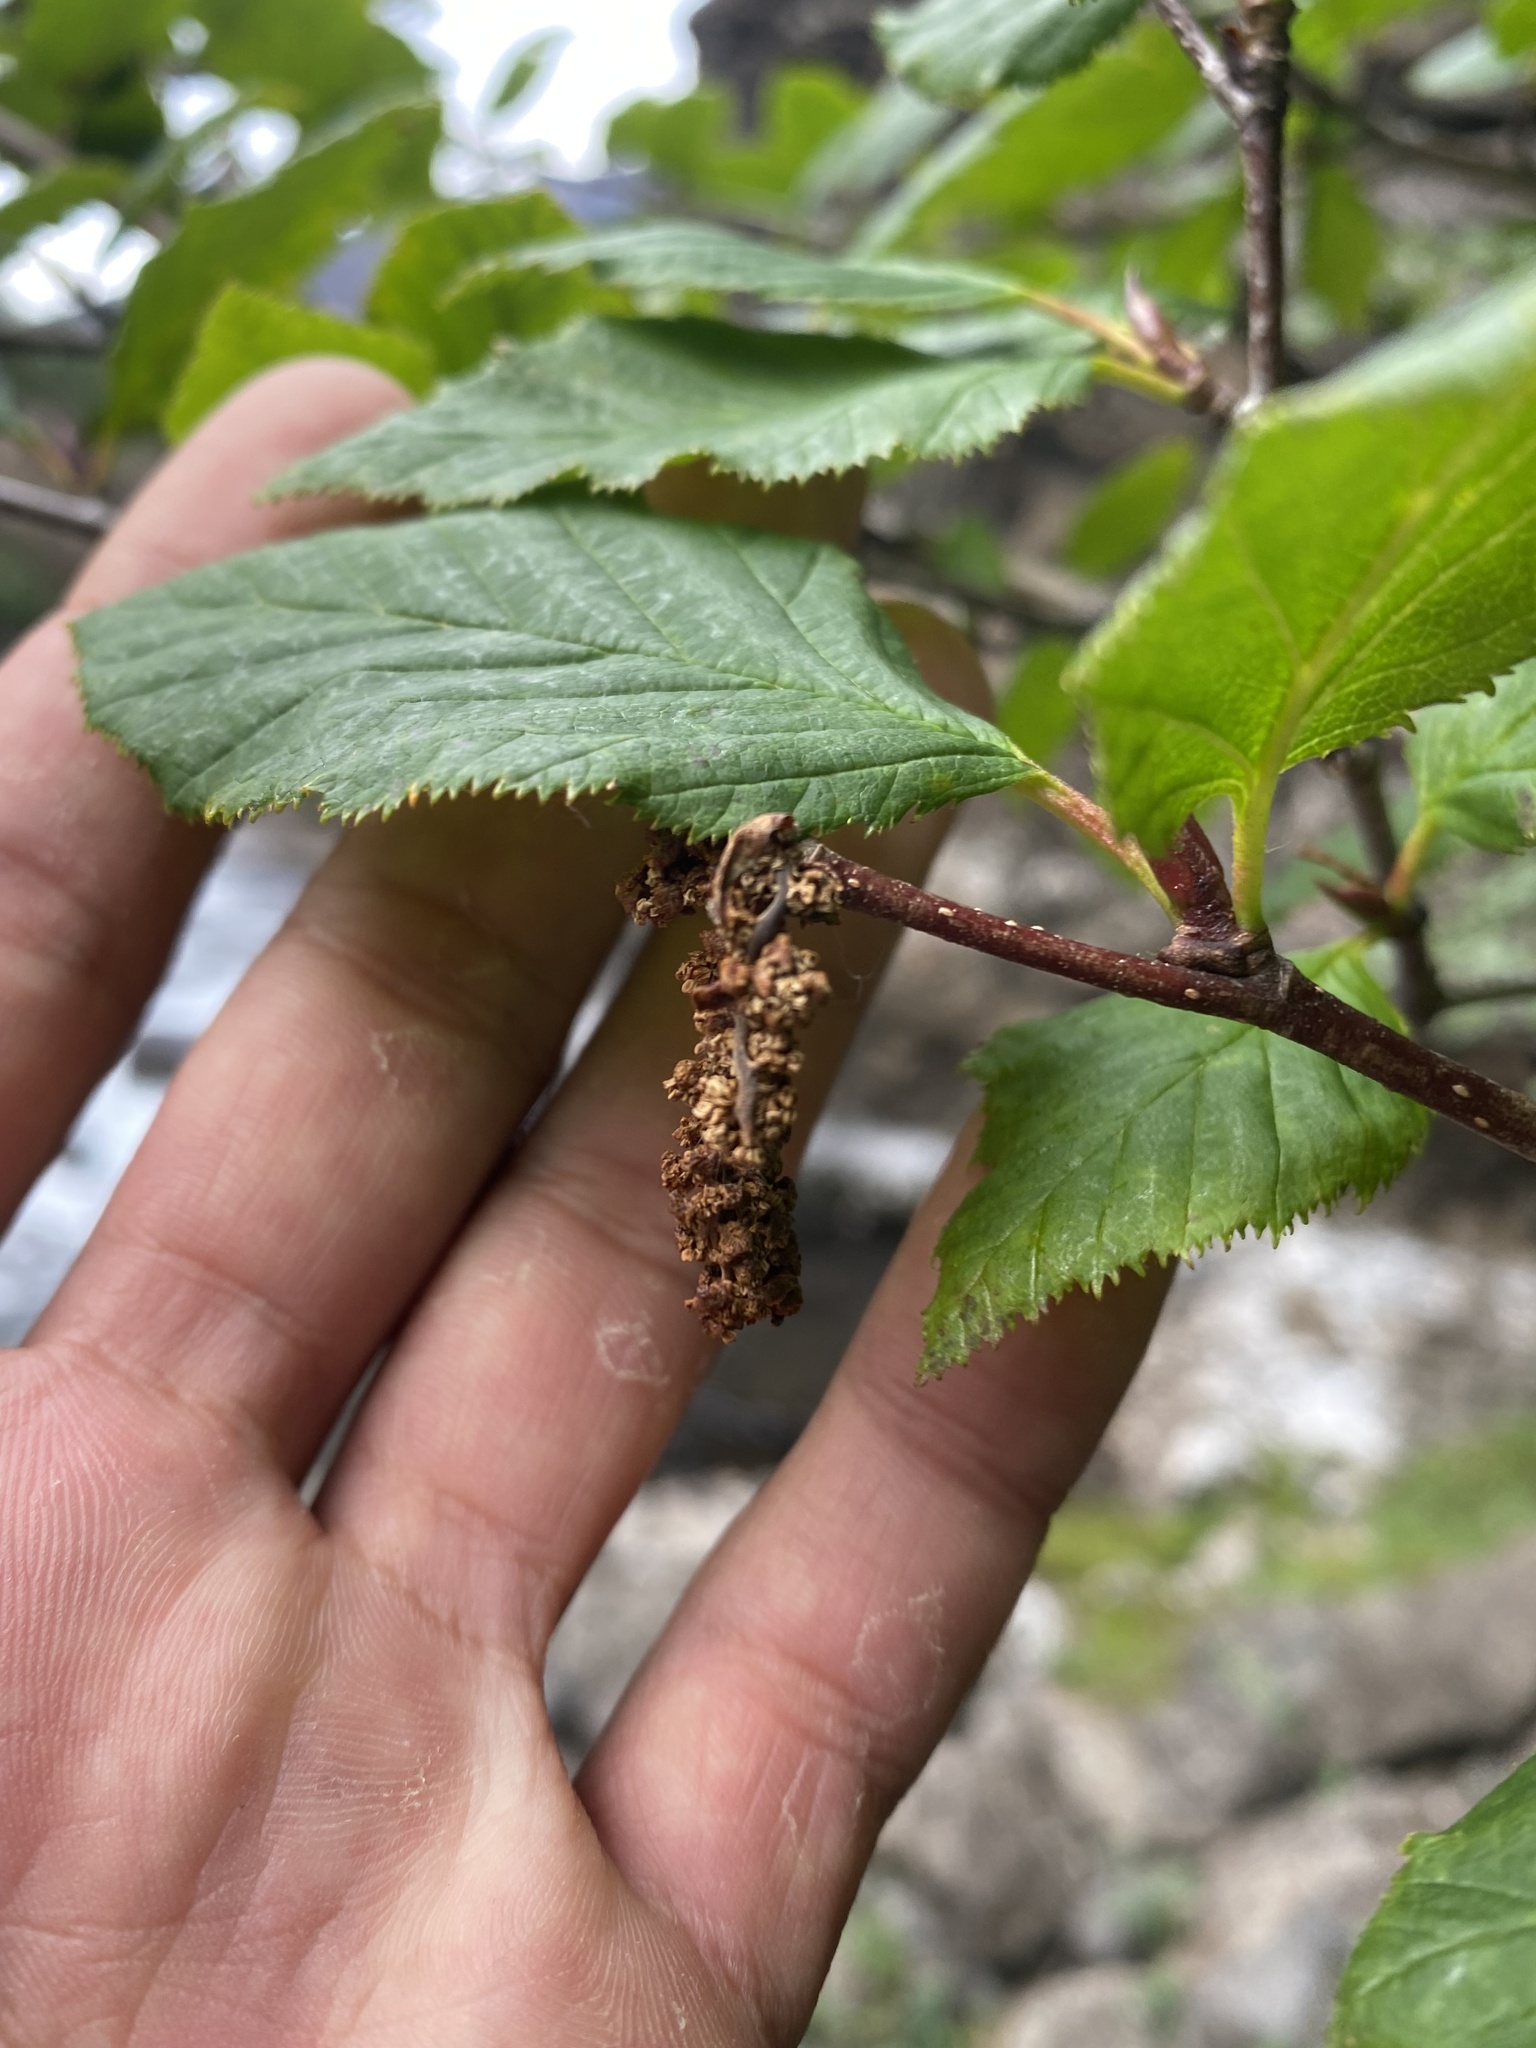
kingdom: Plantae
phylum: Tracheophyta
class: Magnoliopsida
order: Fagales
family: Betulaceae
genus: Alnus
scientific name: Alnus alnobetula
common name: Green alder
